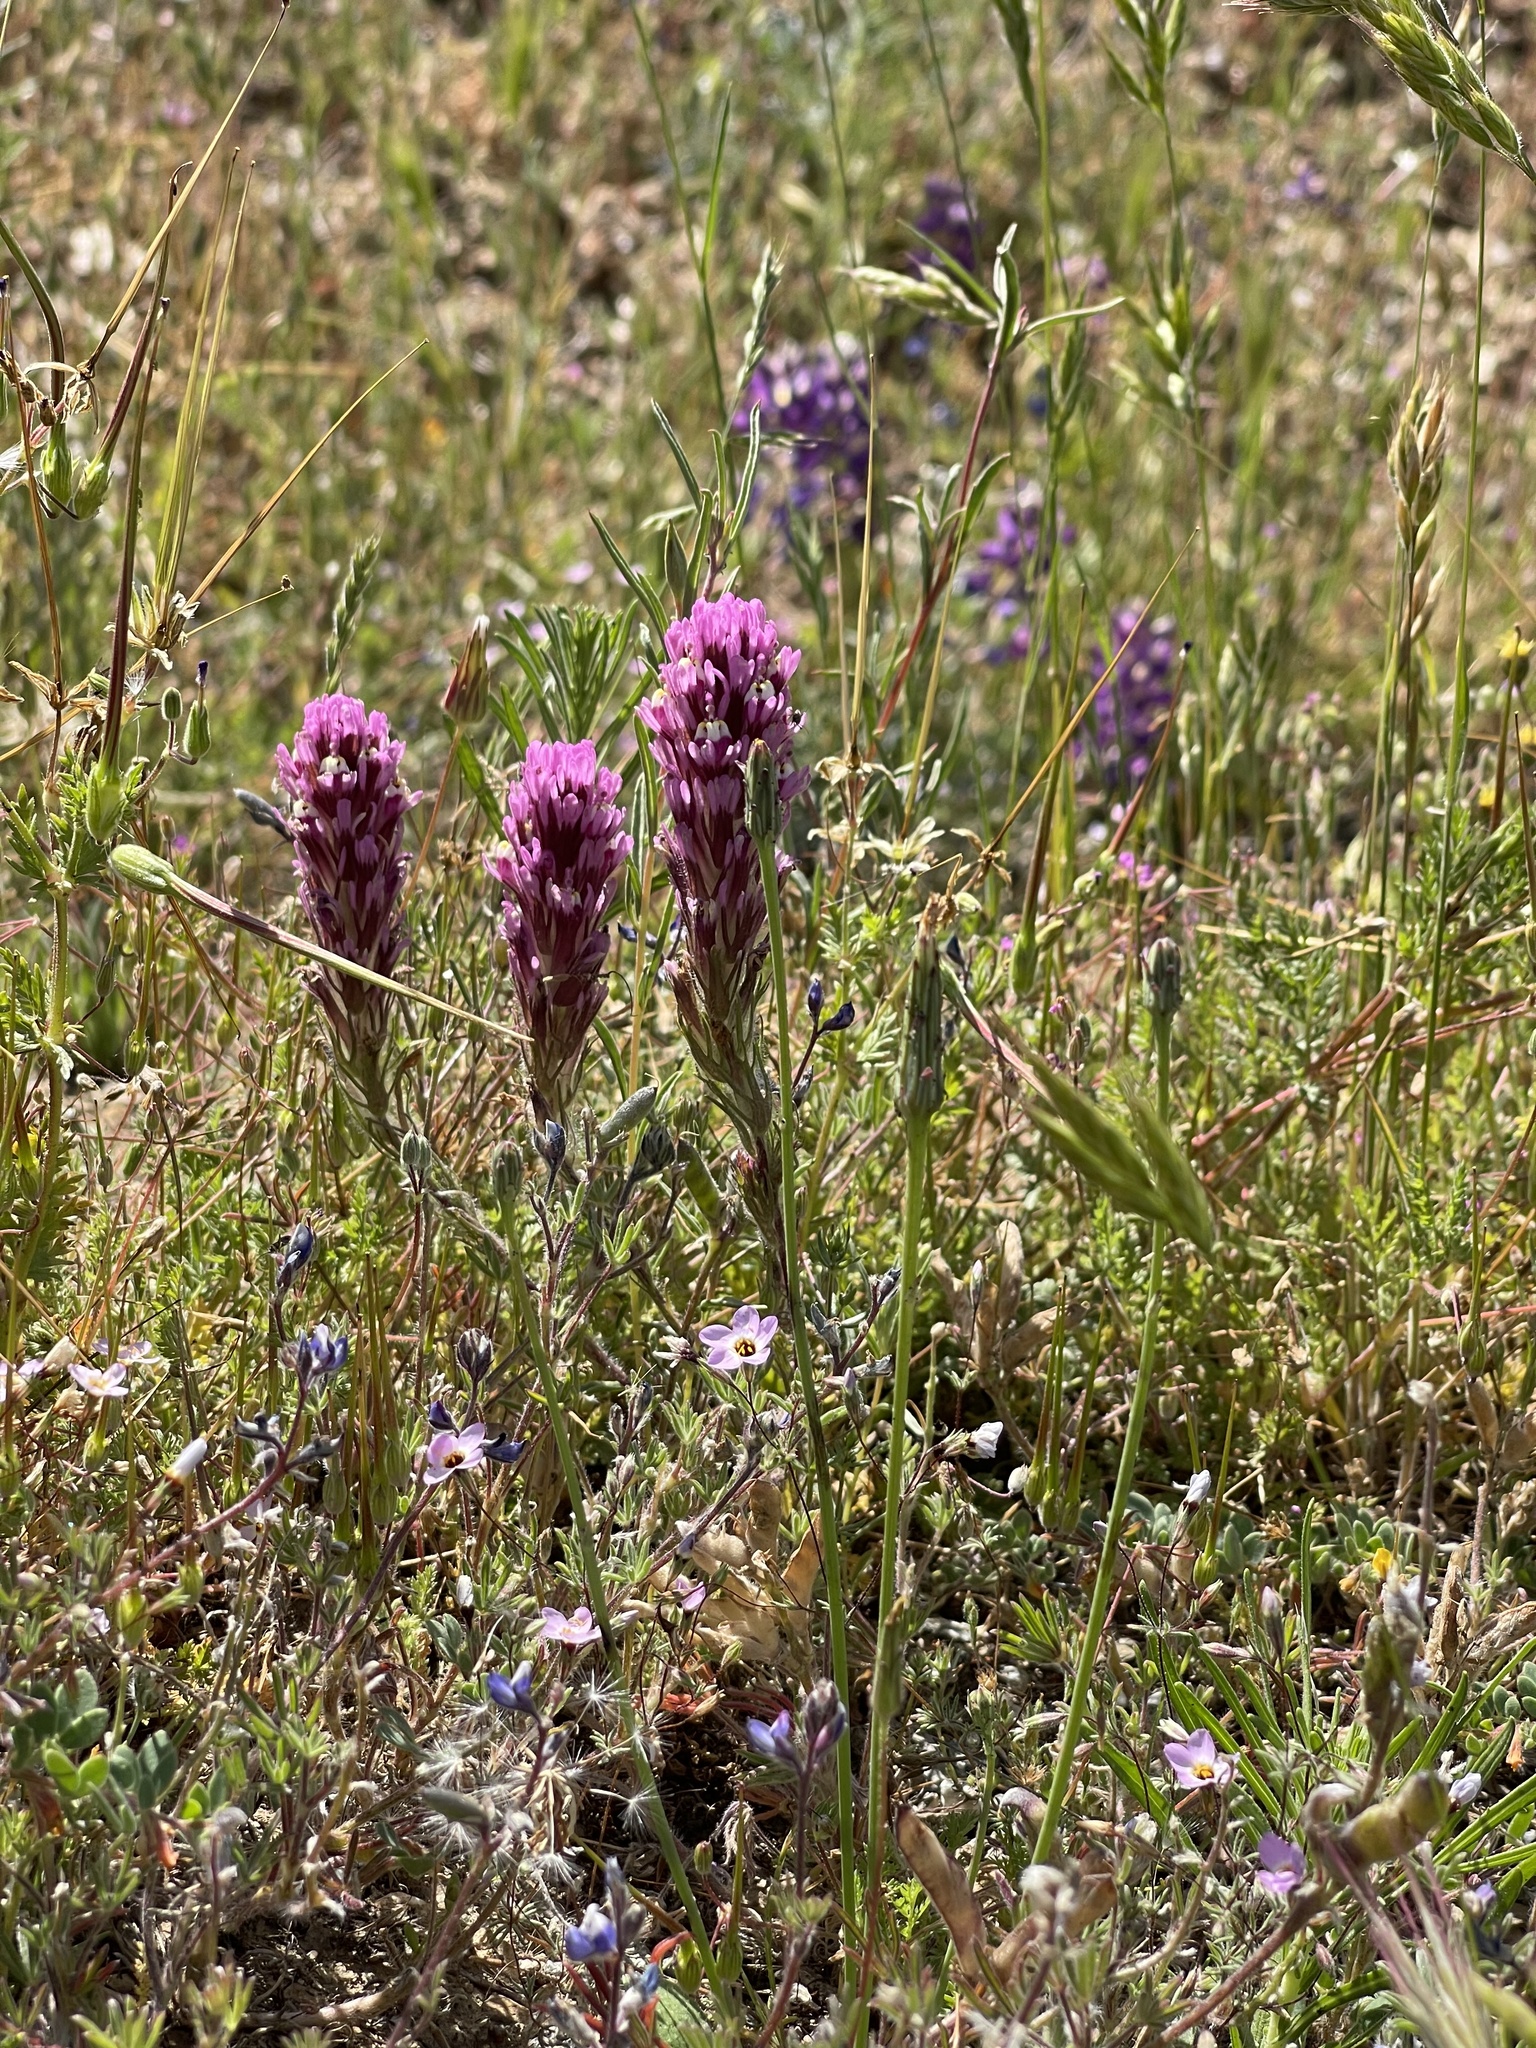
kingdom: Plantae
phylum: Tracheophyta
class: Magnoliopsida
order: Lamiales
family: Orobanchaceae
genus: Castilleja
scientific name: Castilleja exserta
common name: Purple owl-clover
